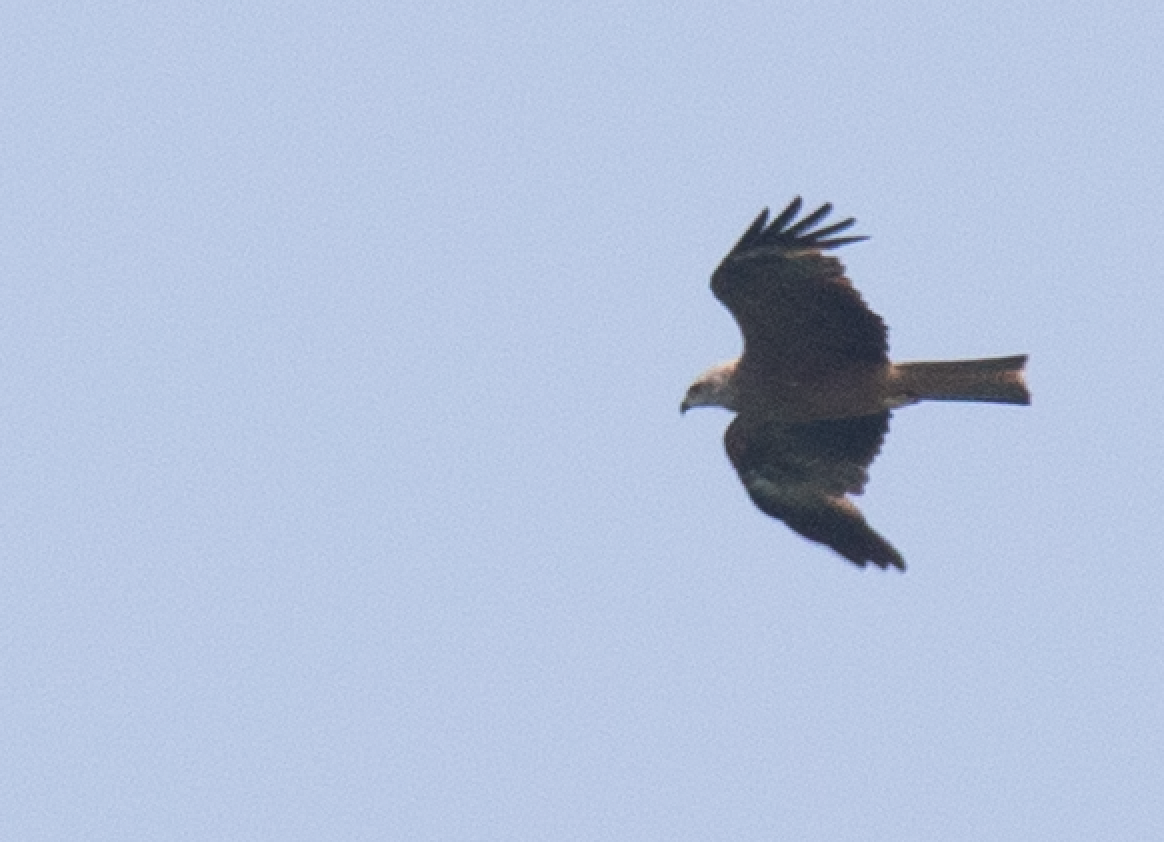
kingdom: Animalia
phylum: Chordata
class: Aves
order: Accipitriformes
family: Accipitridae
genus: Milvus
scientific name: Milvus migrans
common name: Black kite
